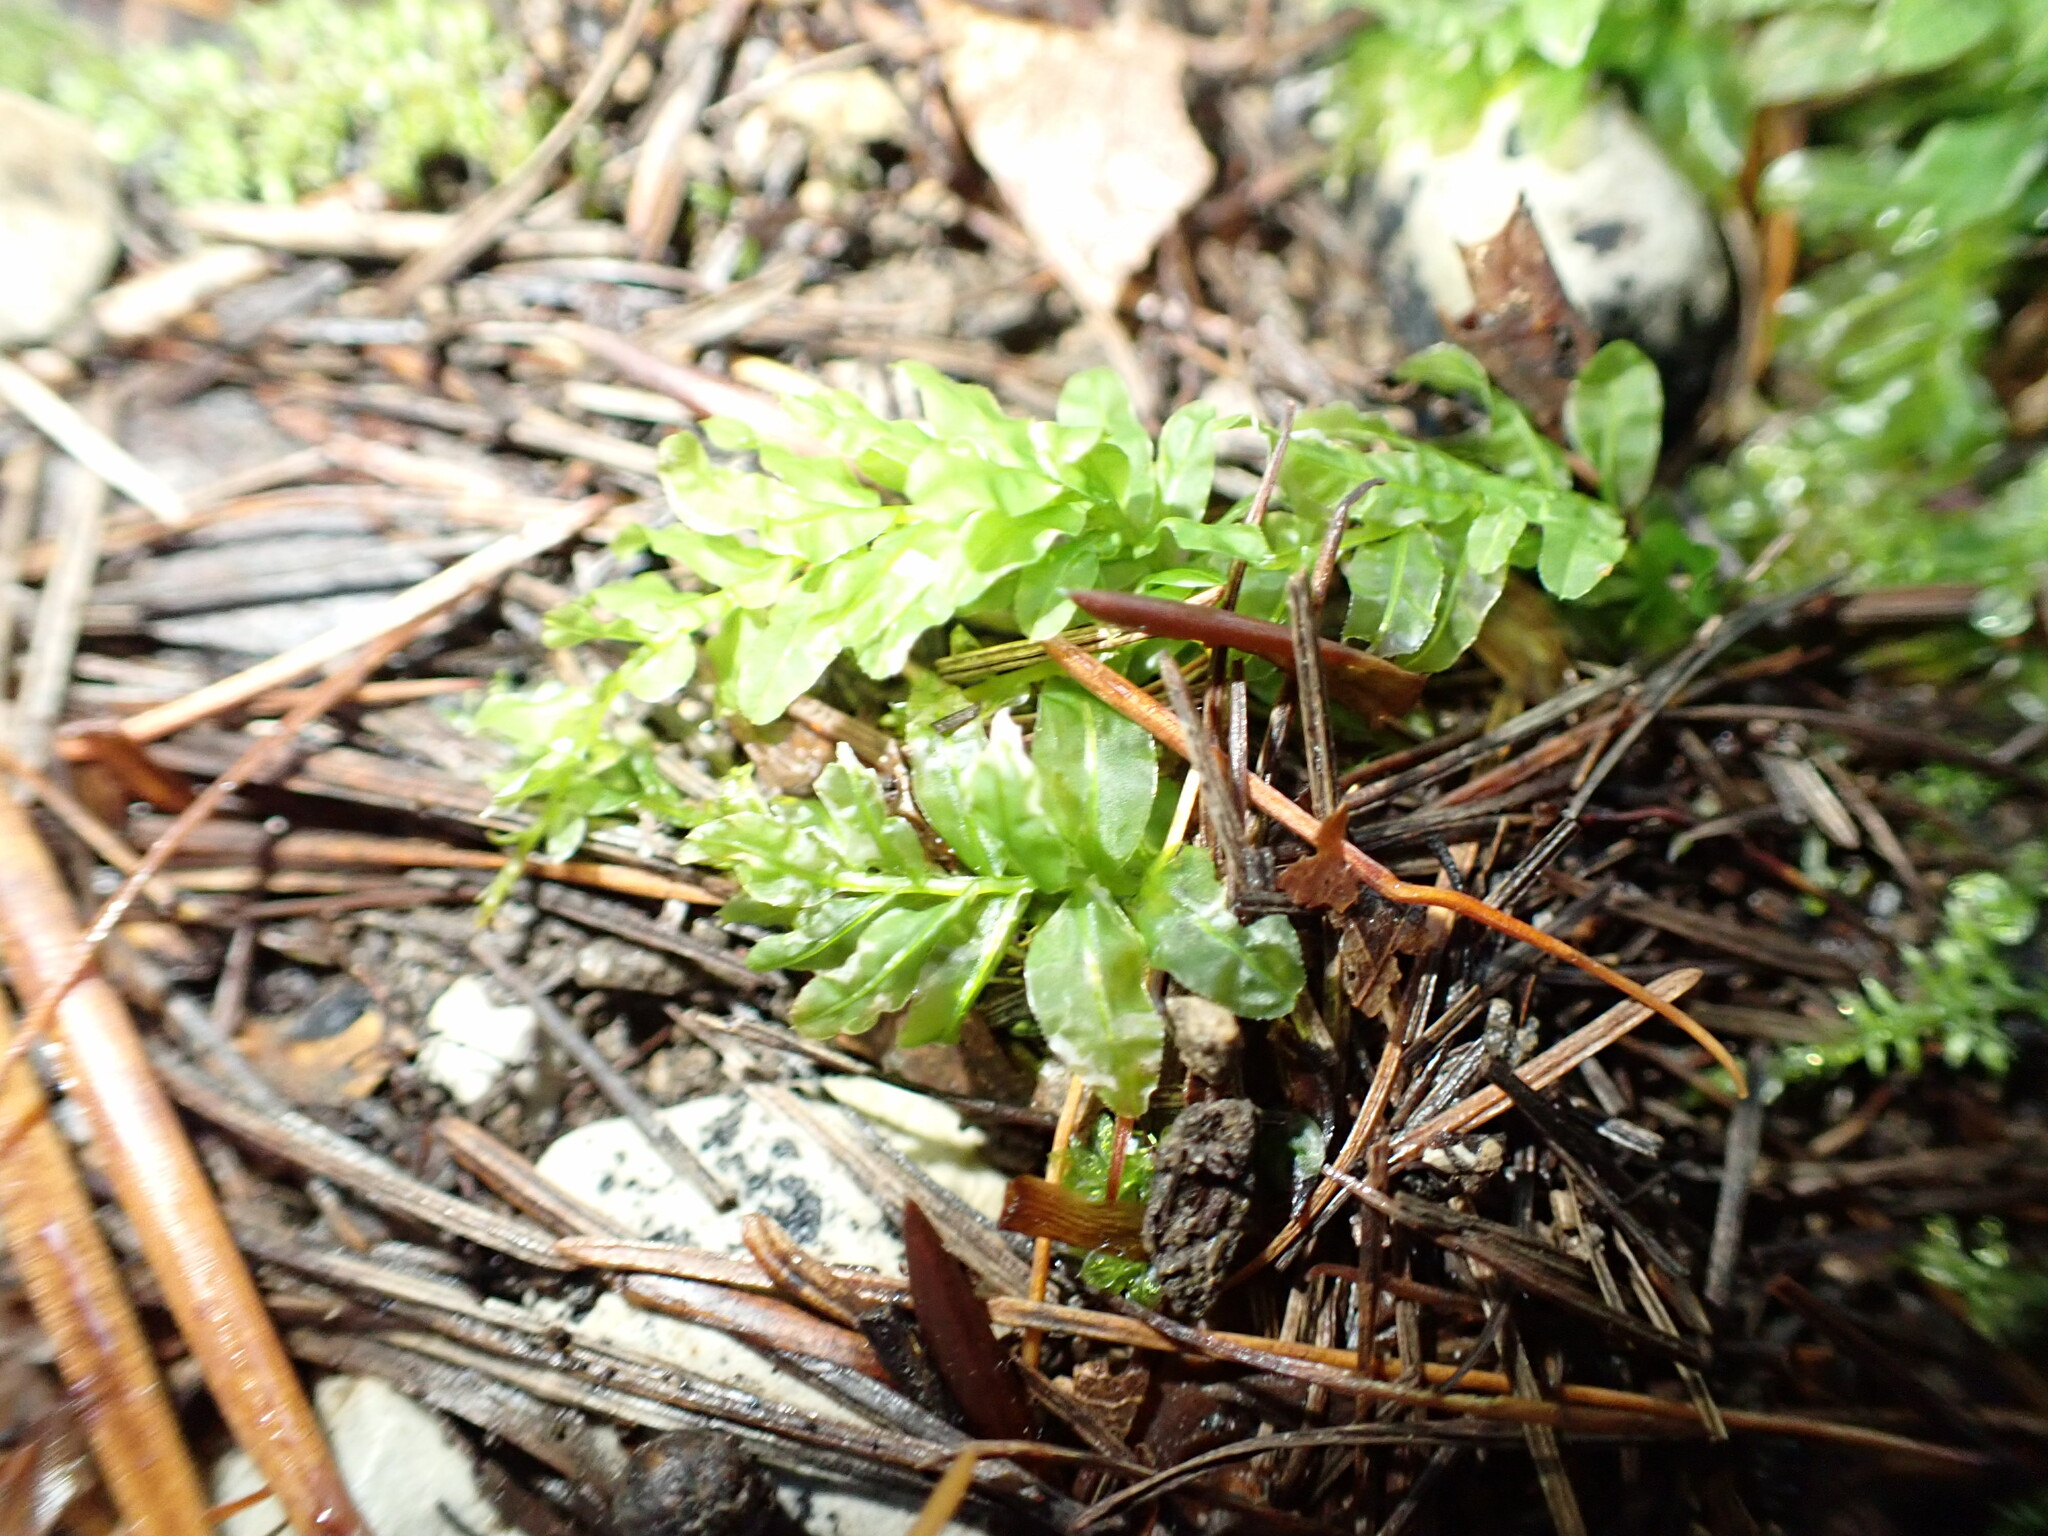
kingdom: Plantae
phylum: Bryophyta
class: Bryopsida
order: Bryales
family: Mniaceae
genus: Plagiomnium
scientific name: Plagiomnium undulatum
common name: Hart's-tongue thyme-moss
